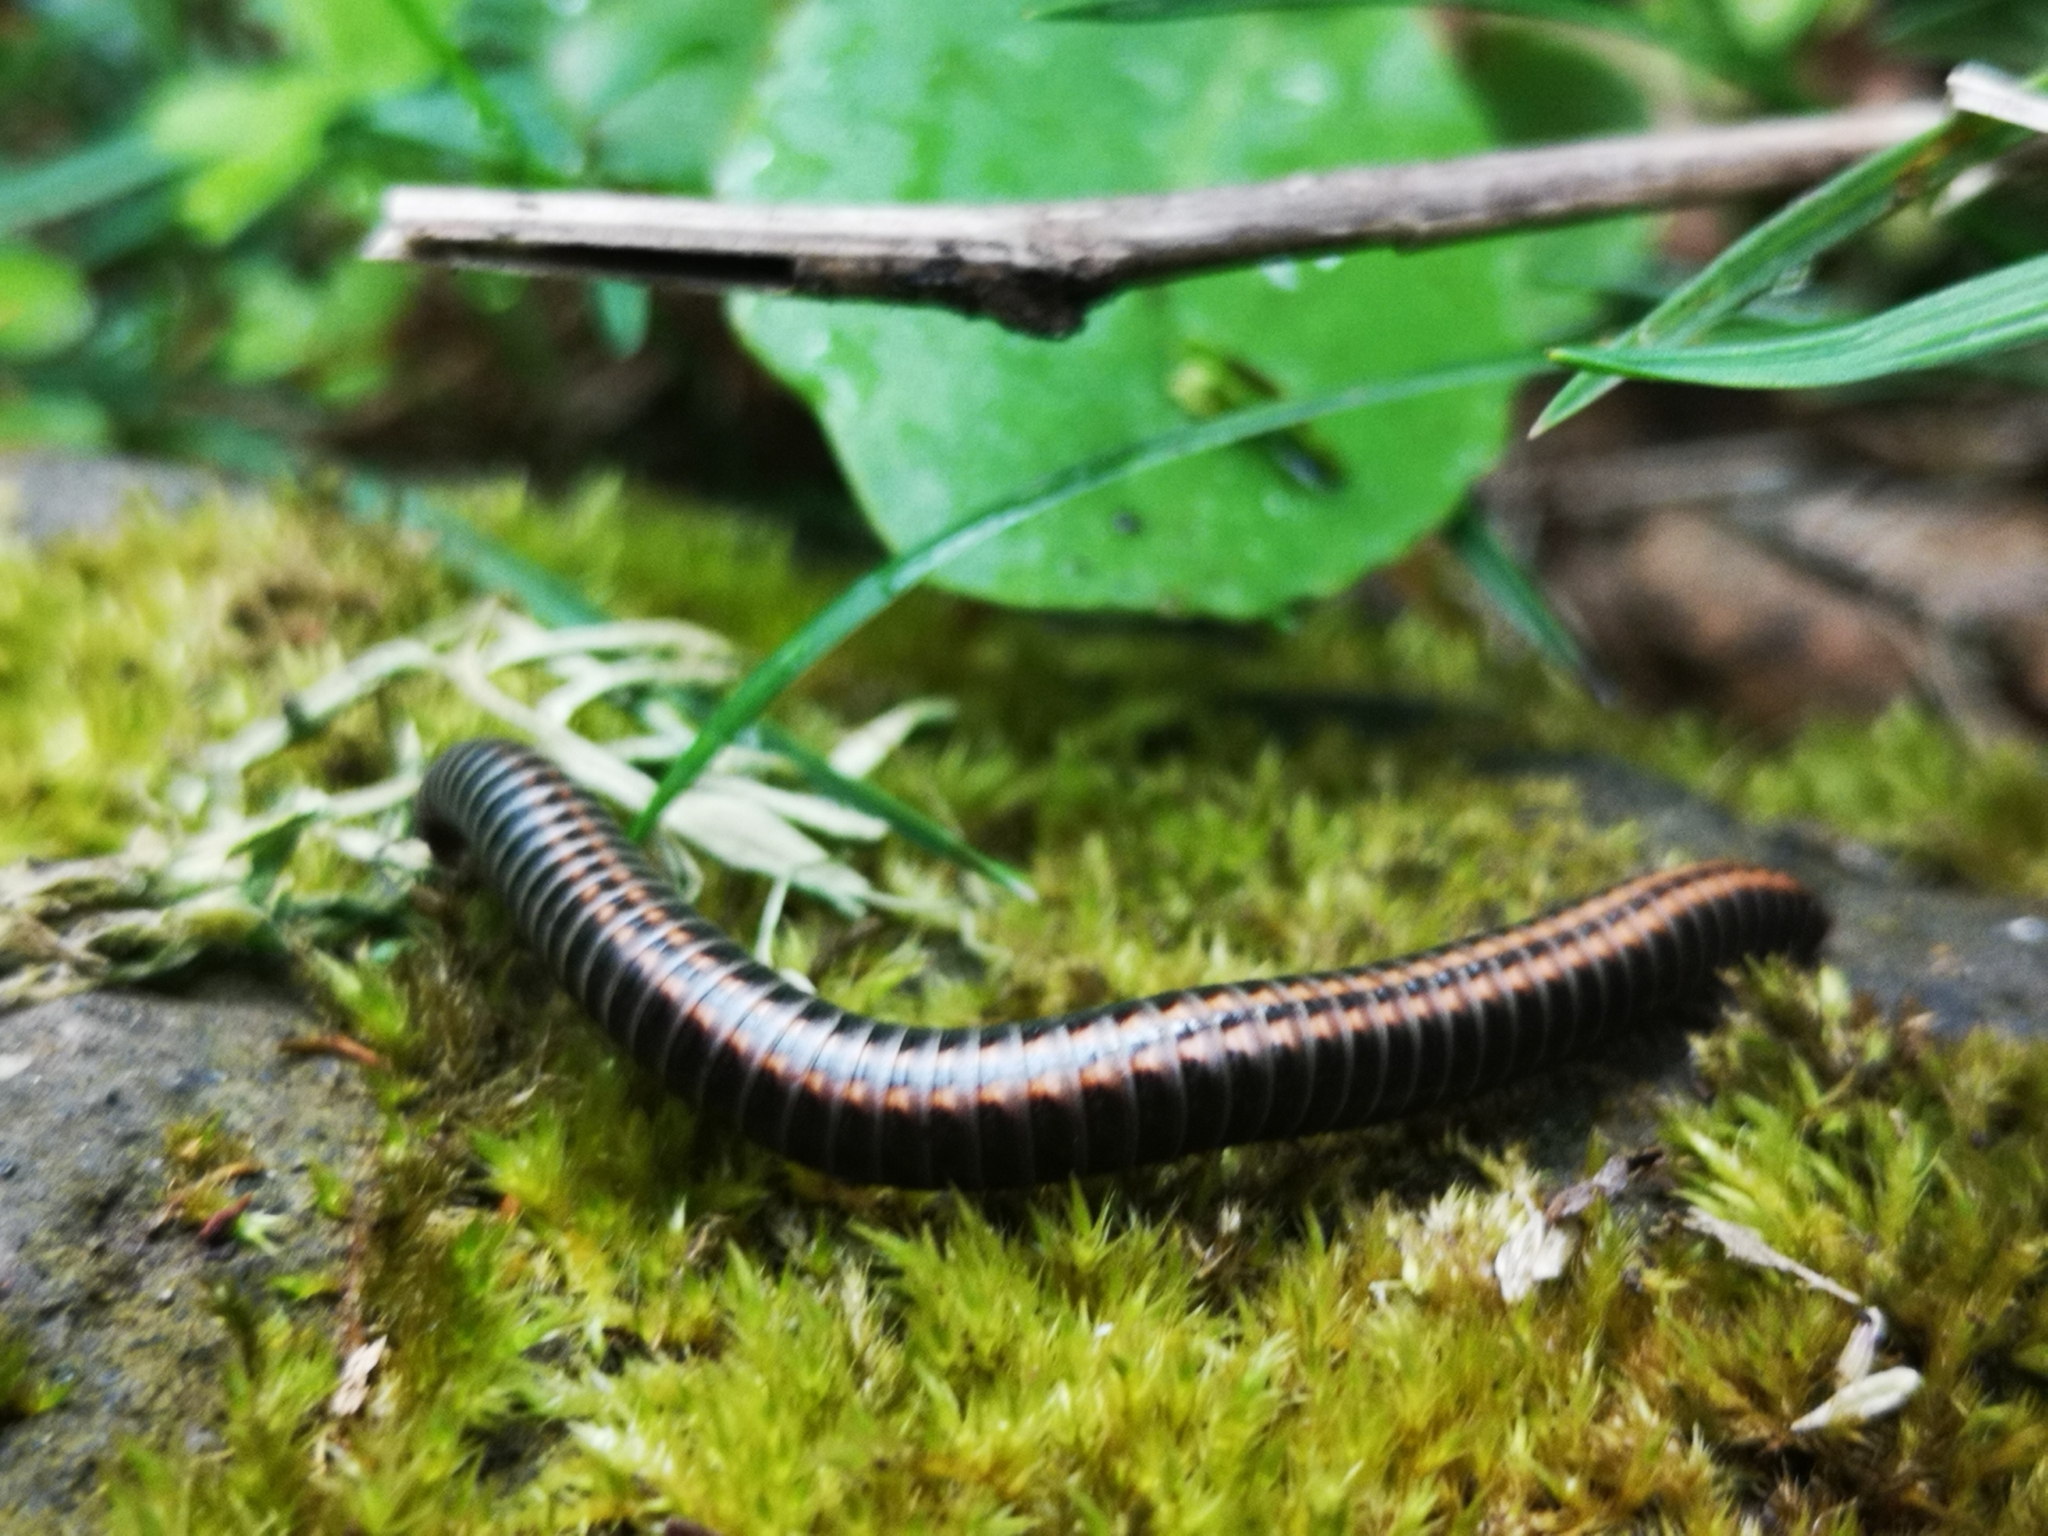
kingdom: Animalia
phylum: Arthropoda
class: Diplopoda
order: Julida
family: Julidae
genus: Ommatoiulus
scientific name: Ommatoiulus sabulosus
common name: Striped millipede
